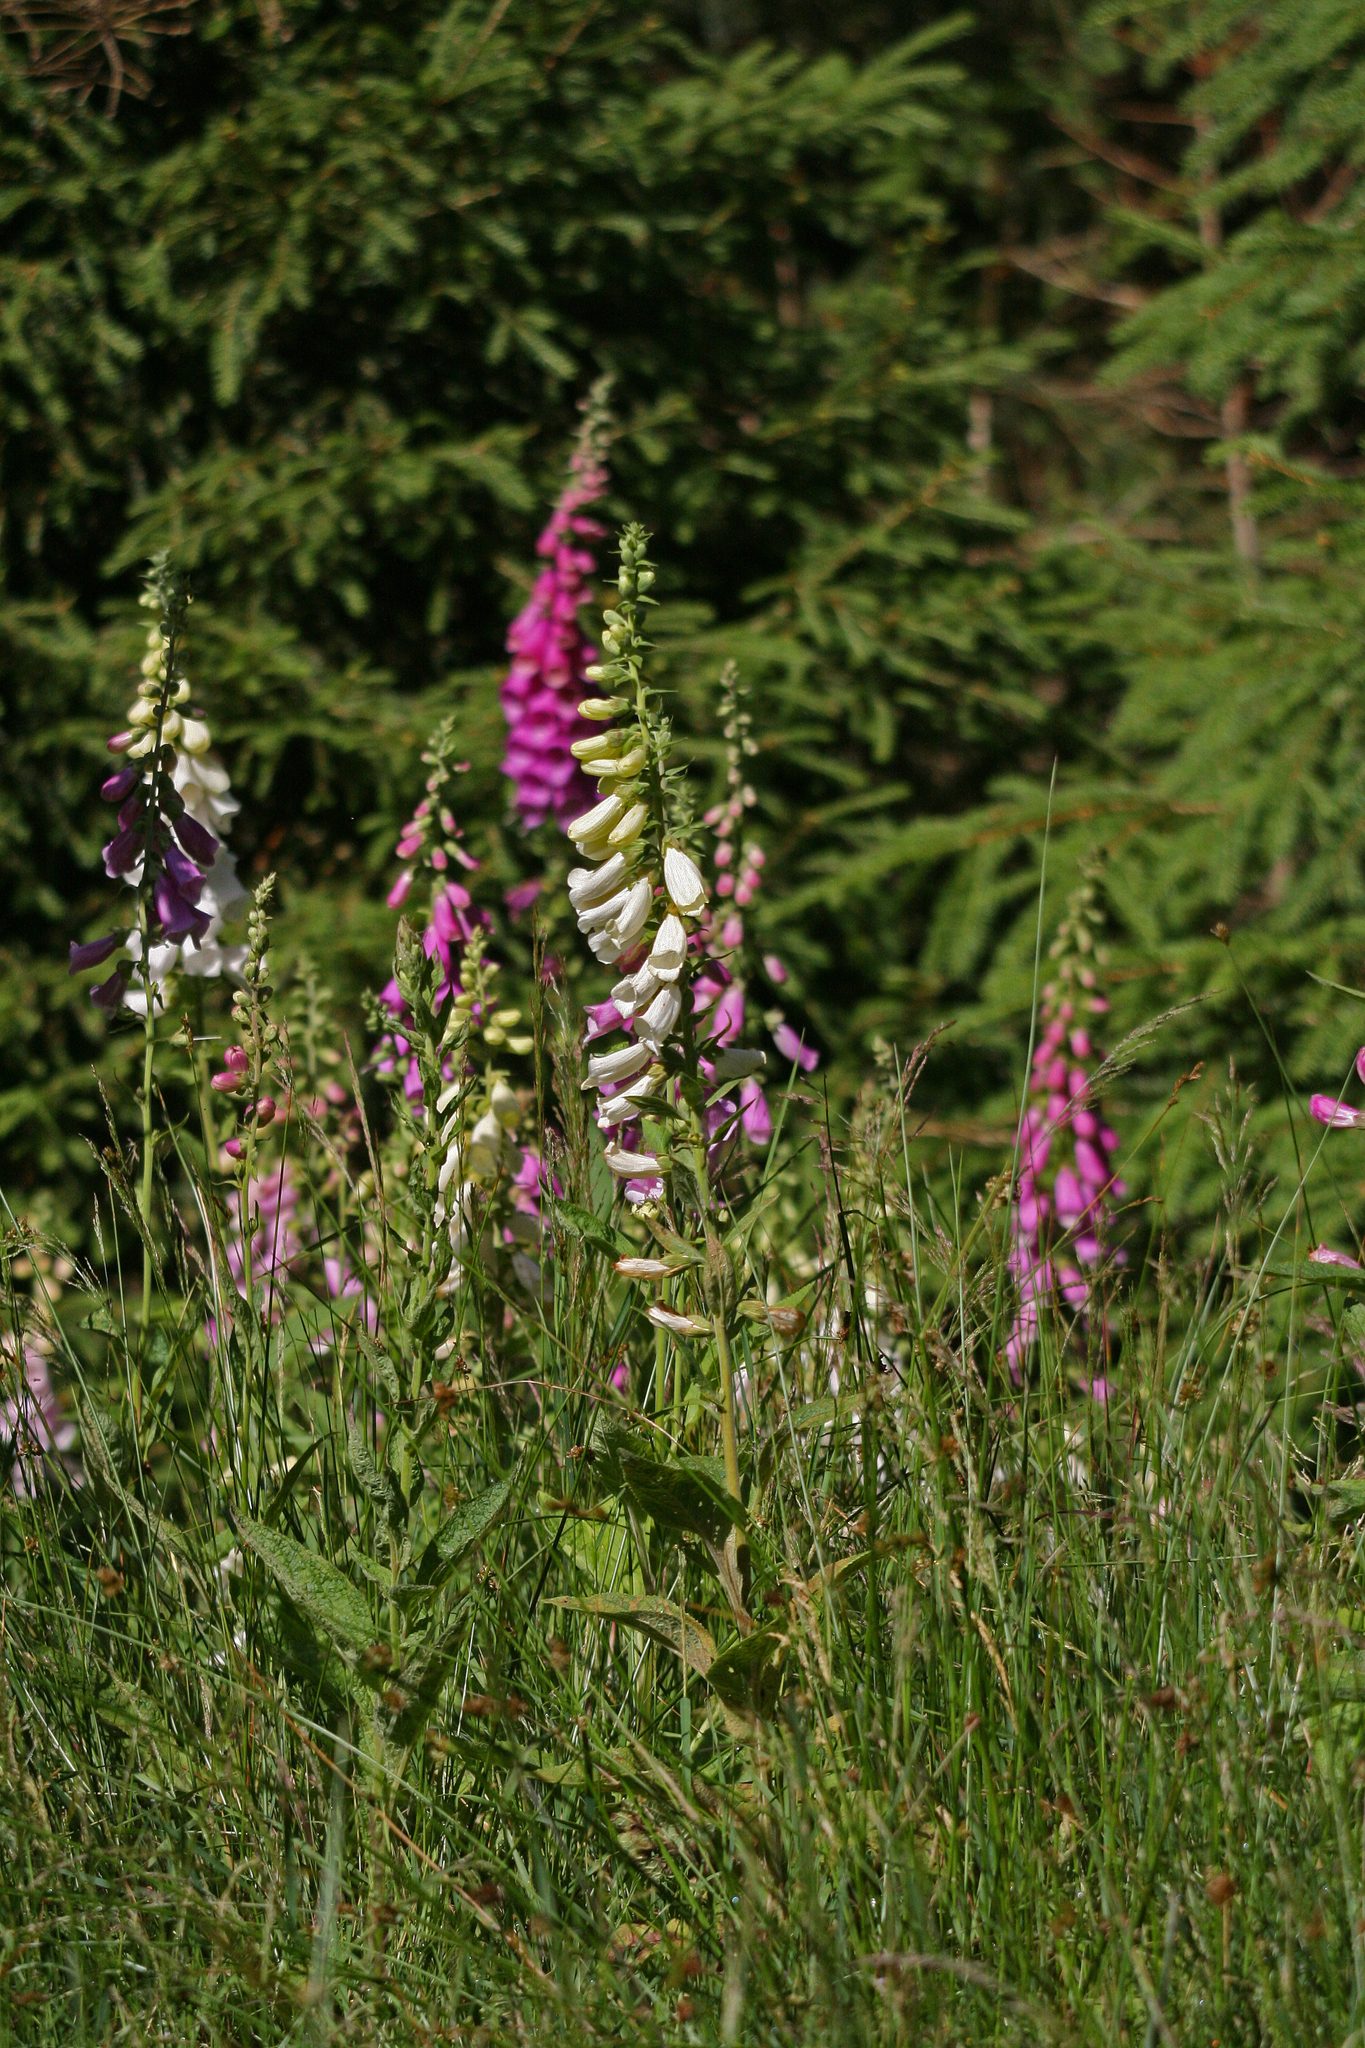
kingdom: Plantae
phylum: Tracheophyta
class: Magnoliopsida
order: Lamiales
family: Plantaginaceae
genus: Digitalis
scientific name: Digitalis purpurea
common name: Foxglove
